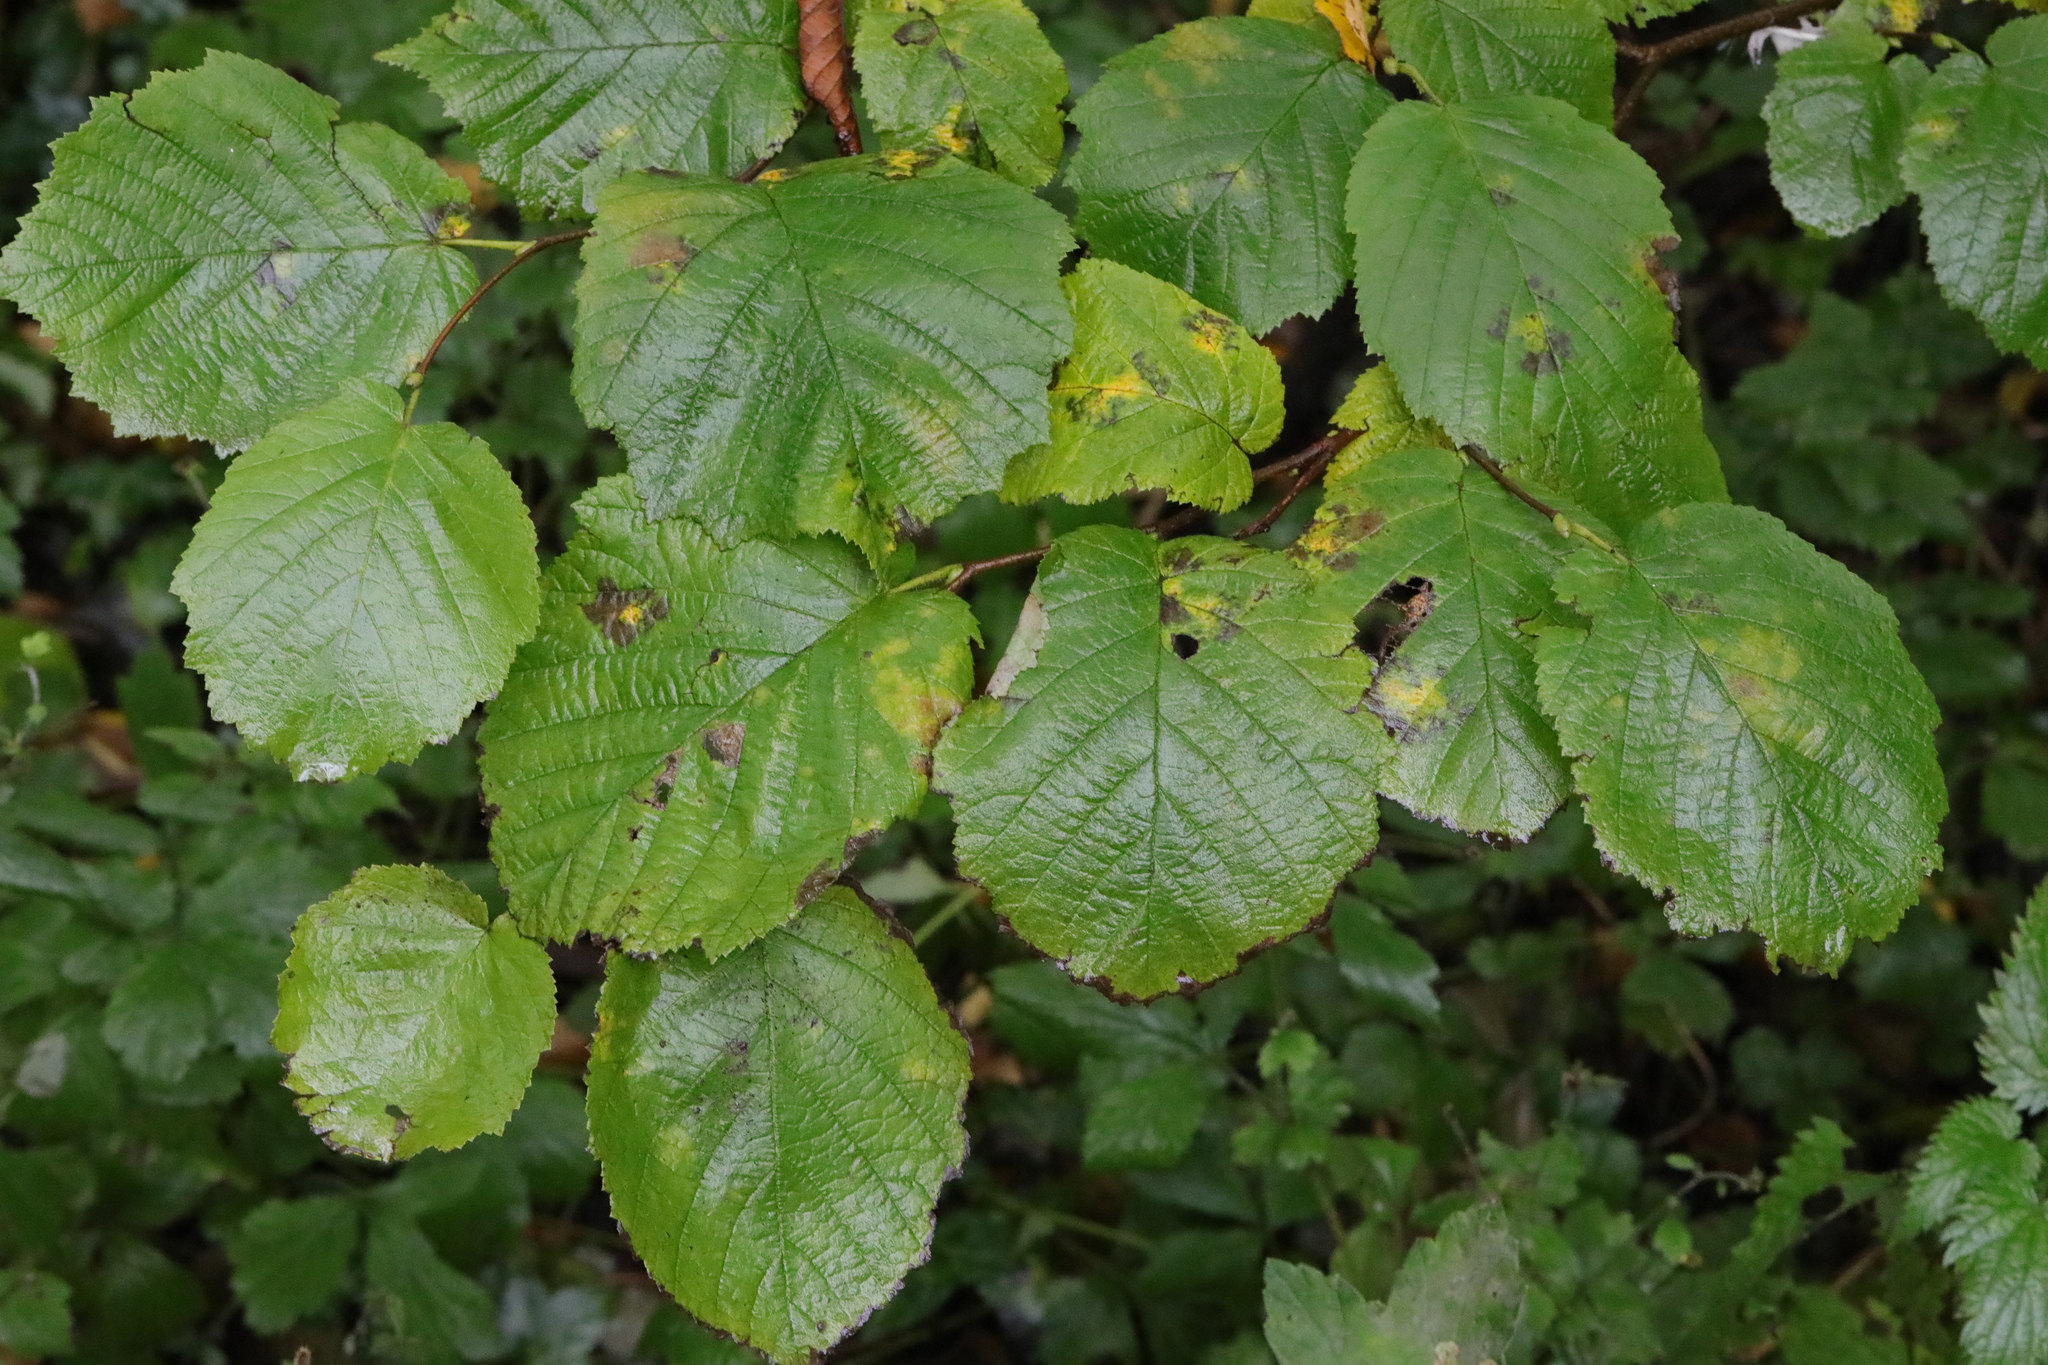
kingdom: Plantae
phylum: Tracheophyta
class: Magnoliopsida
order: Fagales
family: Betulaceae
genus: Corylus
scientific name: Corylus avellana
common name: European hazel
